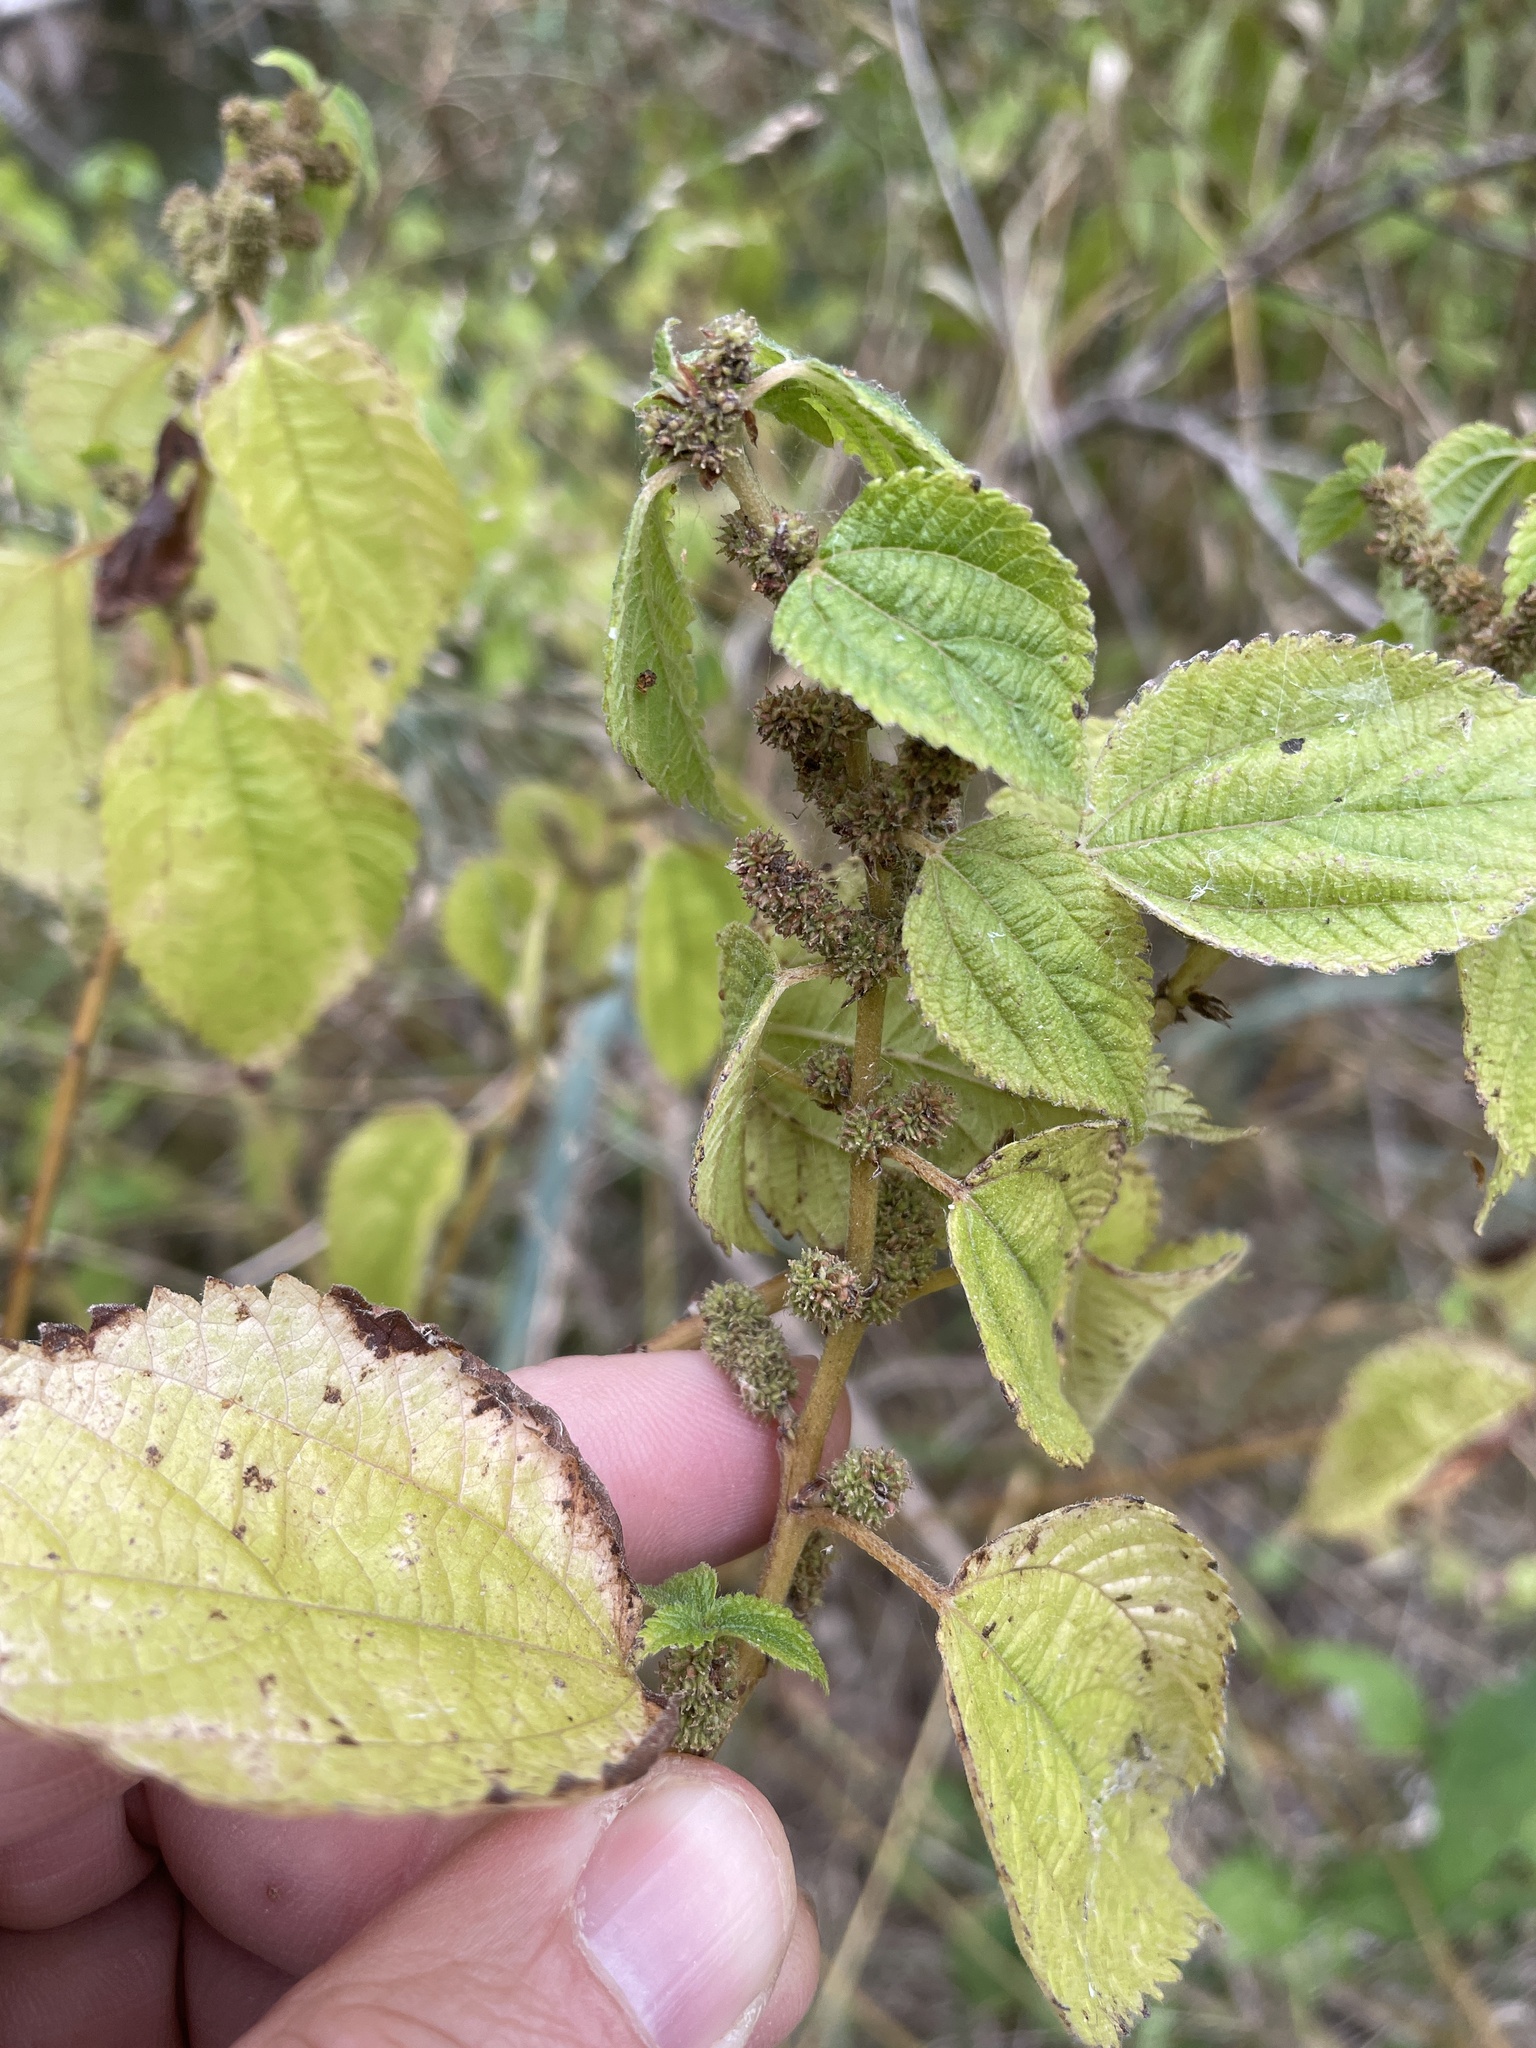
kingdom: Plantae
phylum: Tracheophyta
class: Magnoliopsida
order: Rosales
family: Urticaceae
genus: Boehmeria
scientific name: Boehmeria cylindrica
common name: Bog-hemp
